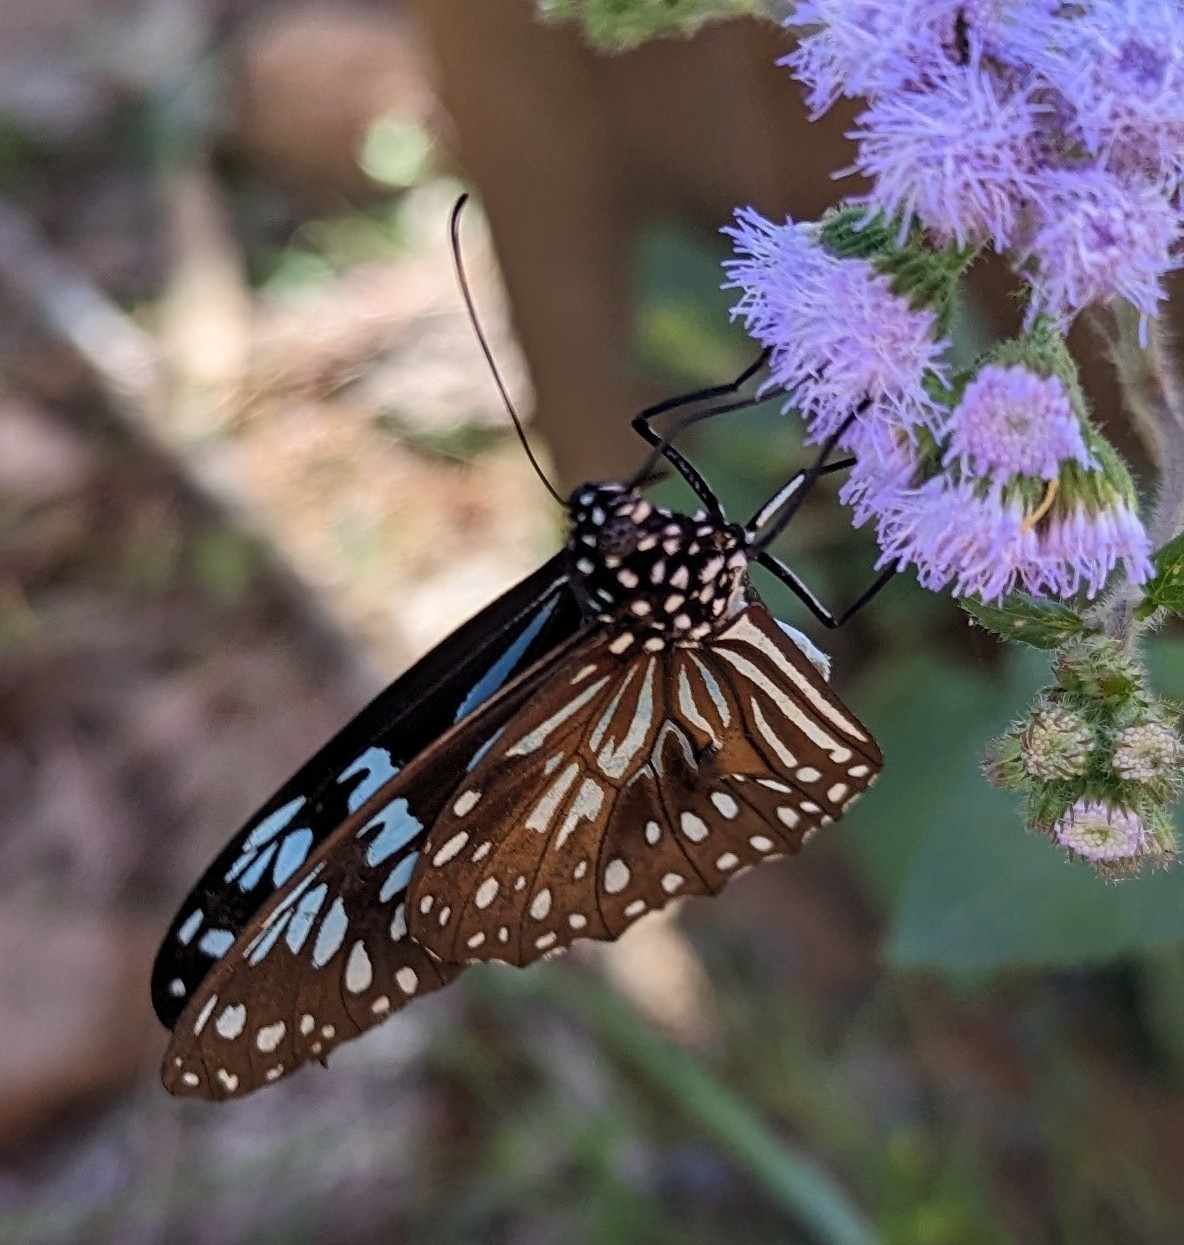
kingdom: Animalia
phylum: Arthropoda
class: Insecta
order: Lepidoptera
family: Nymphalidae
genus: Tirumala
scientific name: Tirumala hamata
